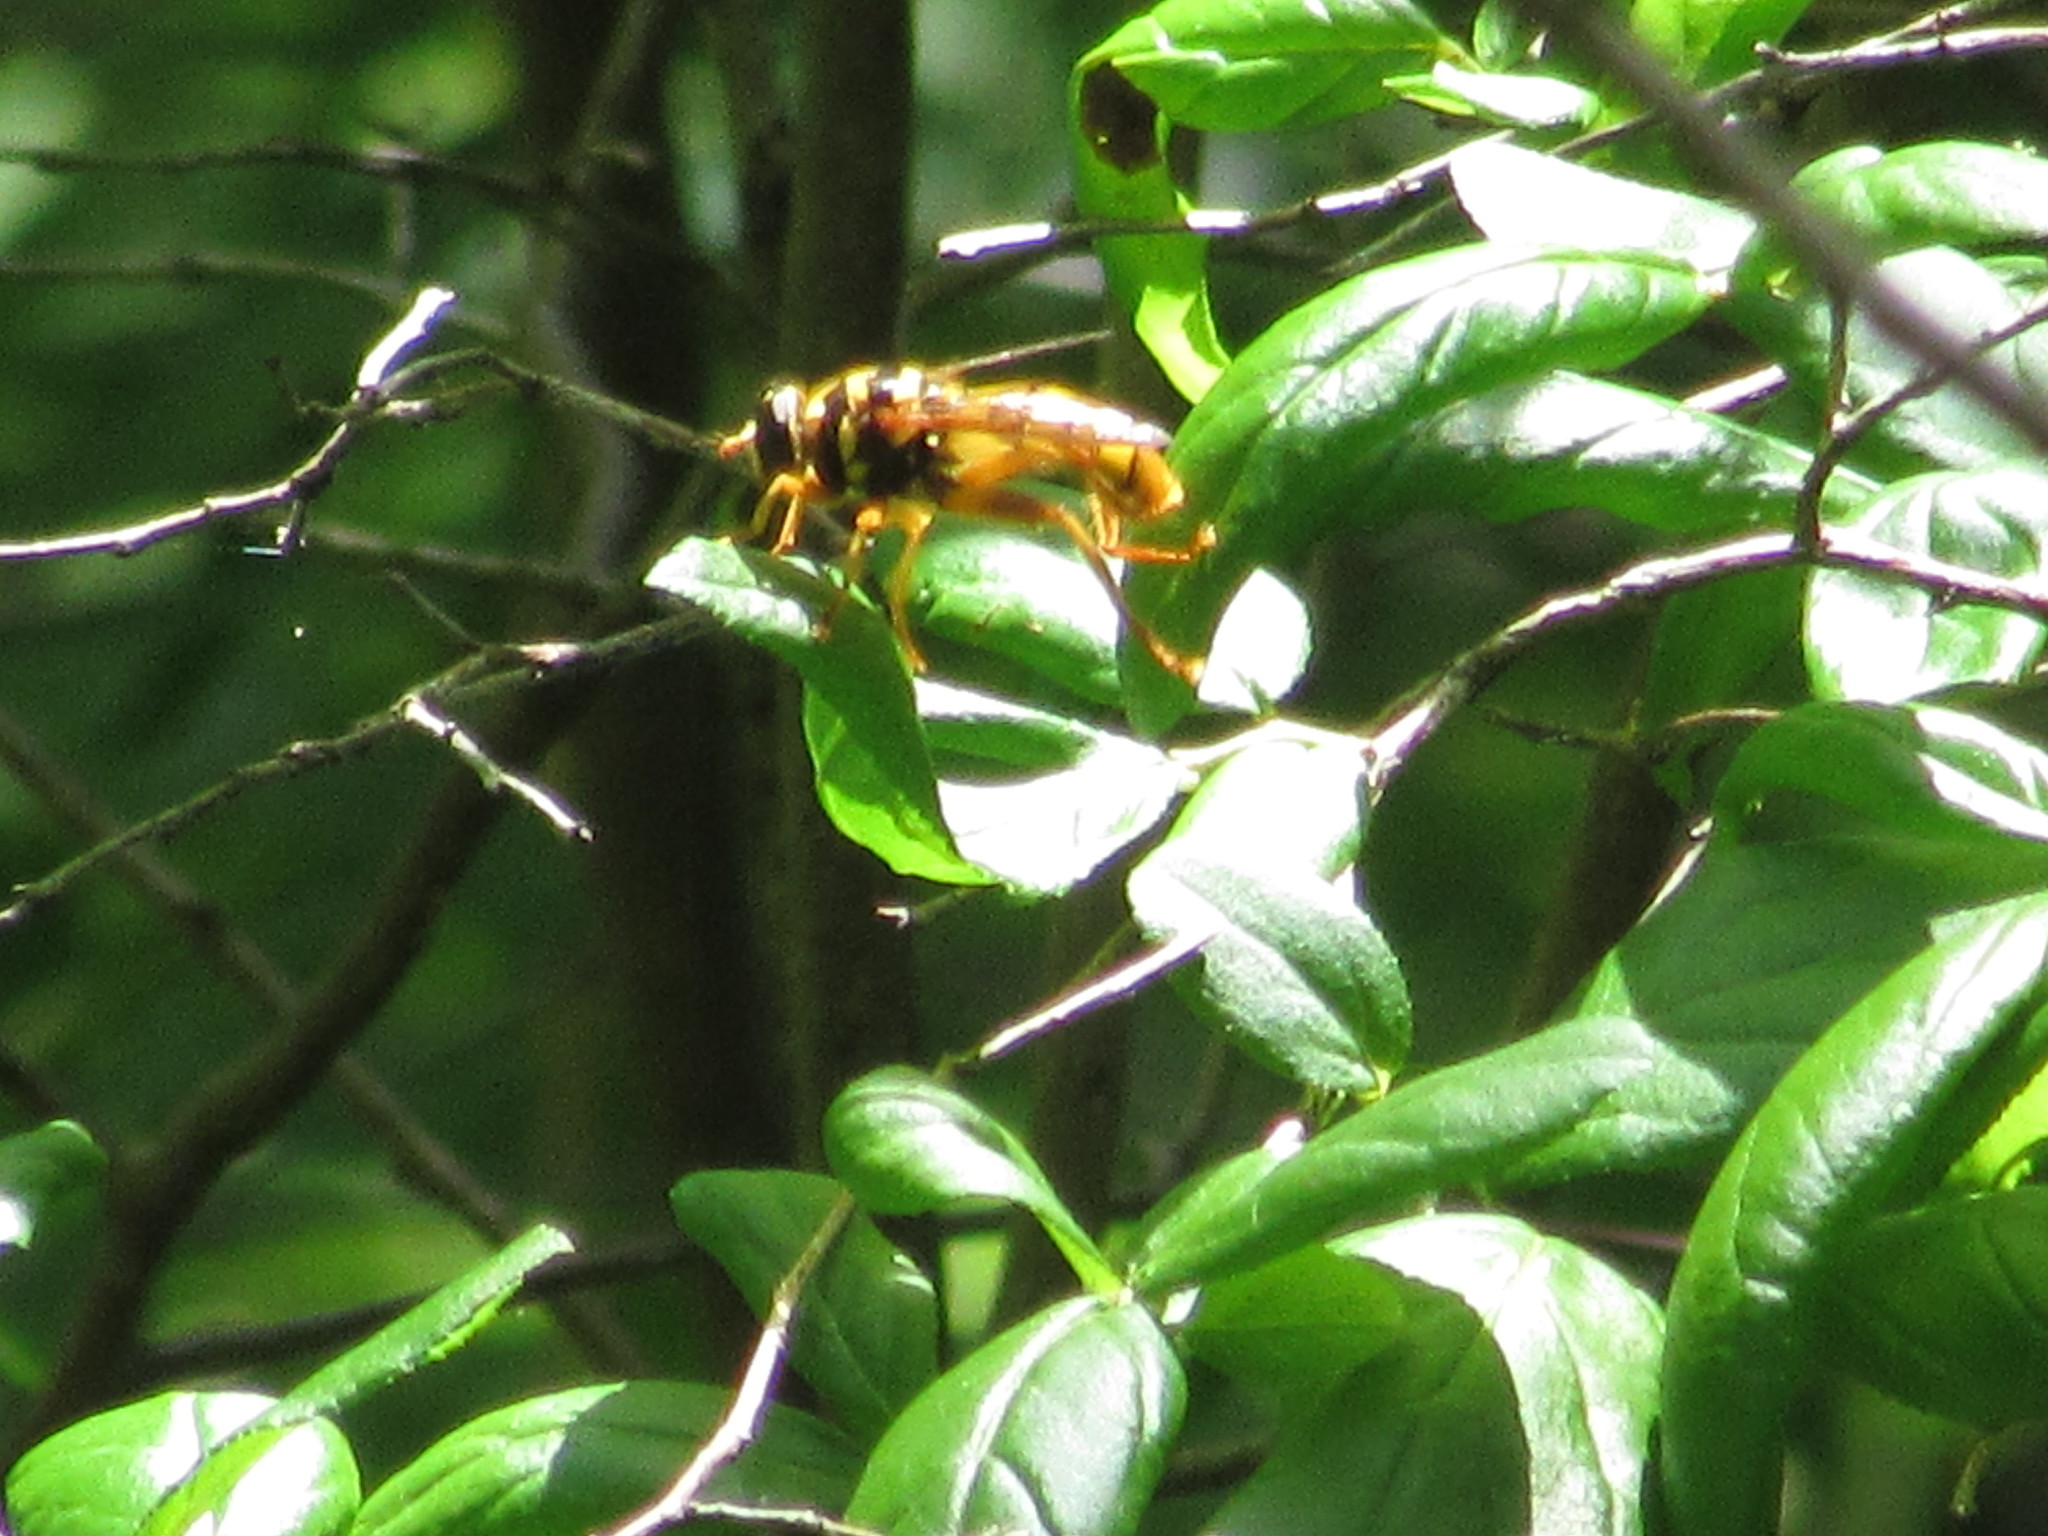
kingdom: Animalia
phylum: Arthropoda
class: Insecta
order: Diptera
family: Syrphidae
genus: Milesia
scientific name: Milesia virginiensis
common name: Virginia giant
